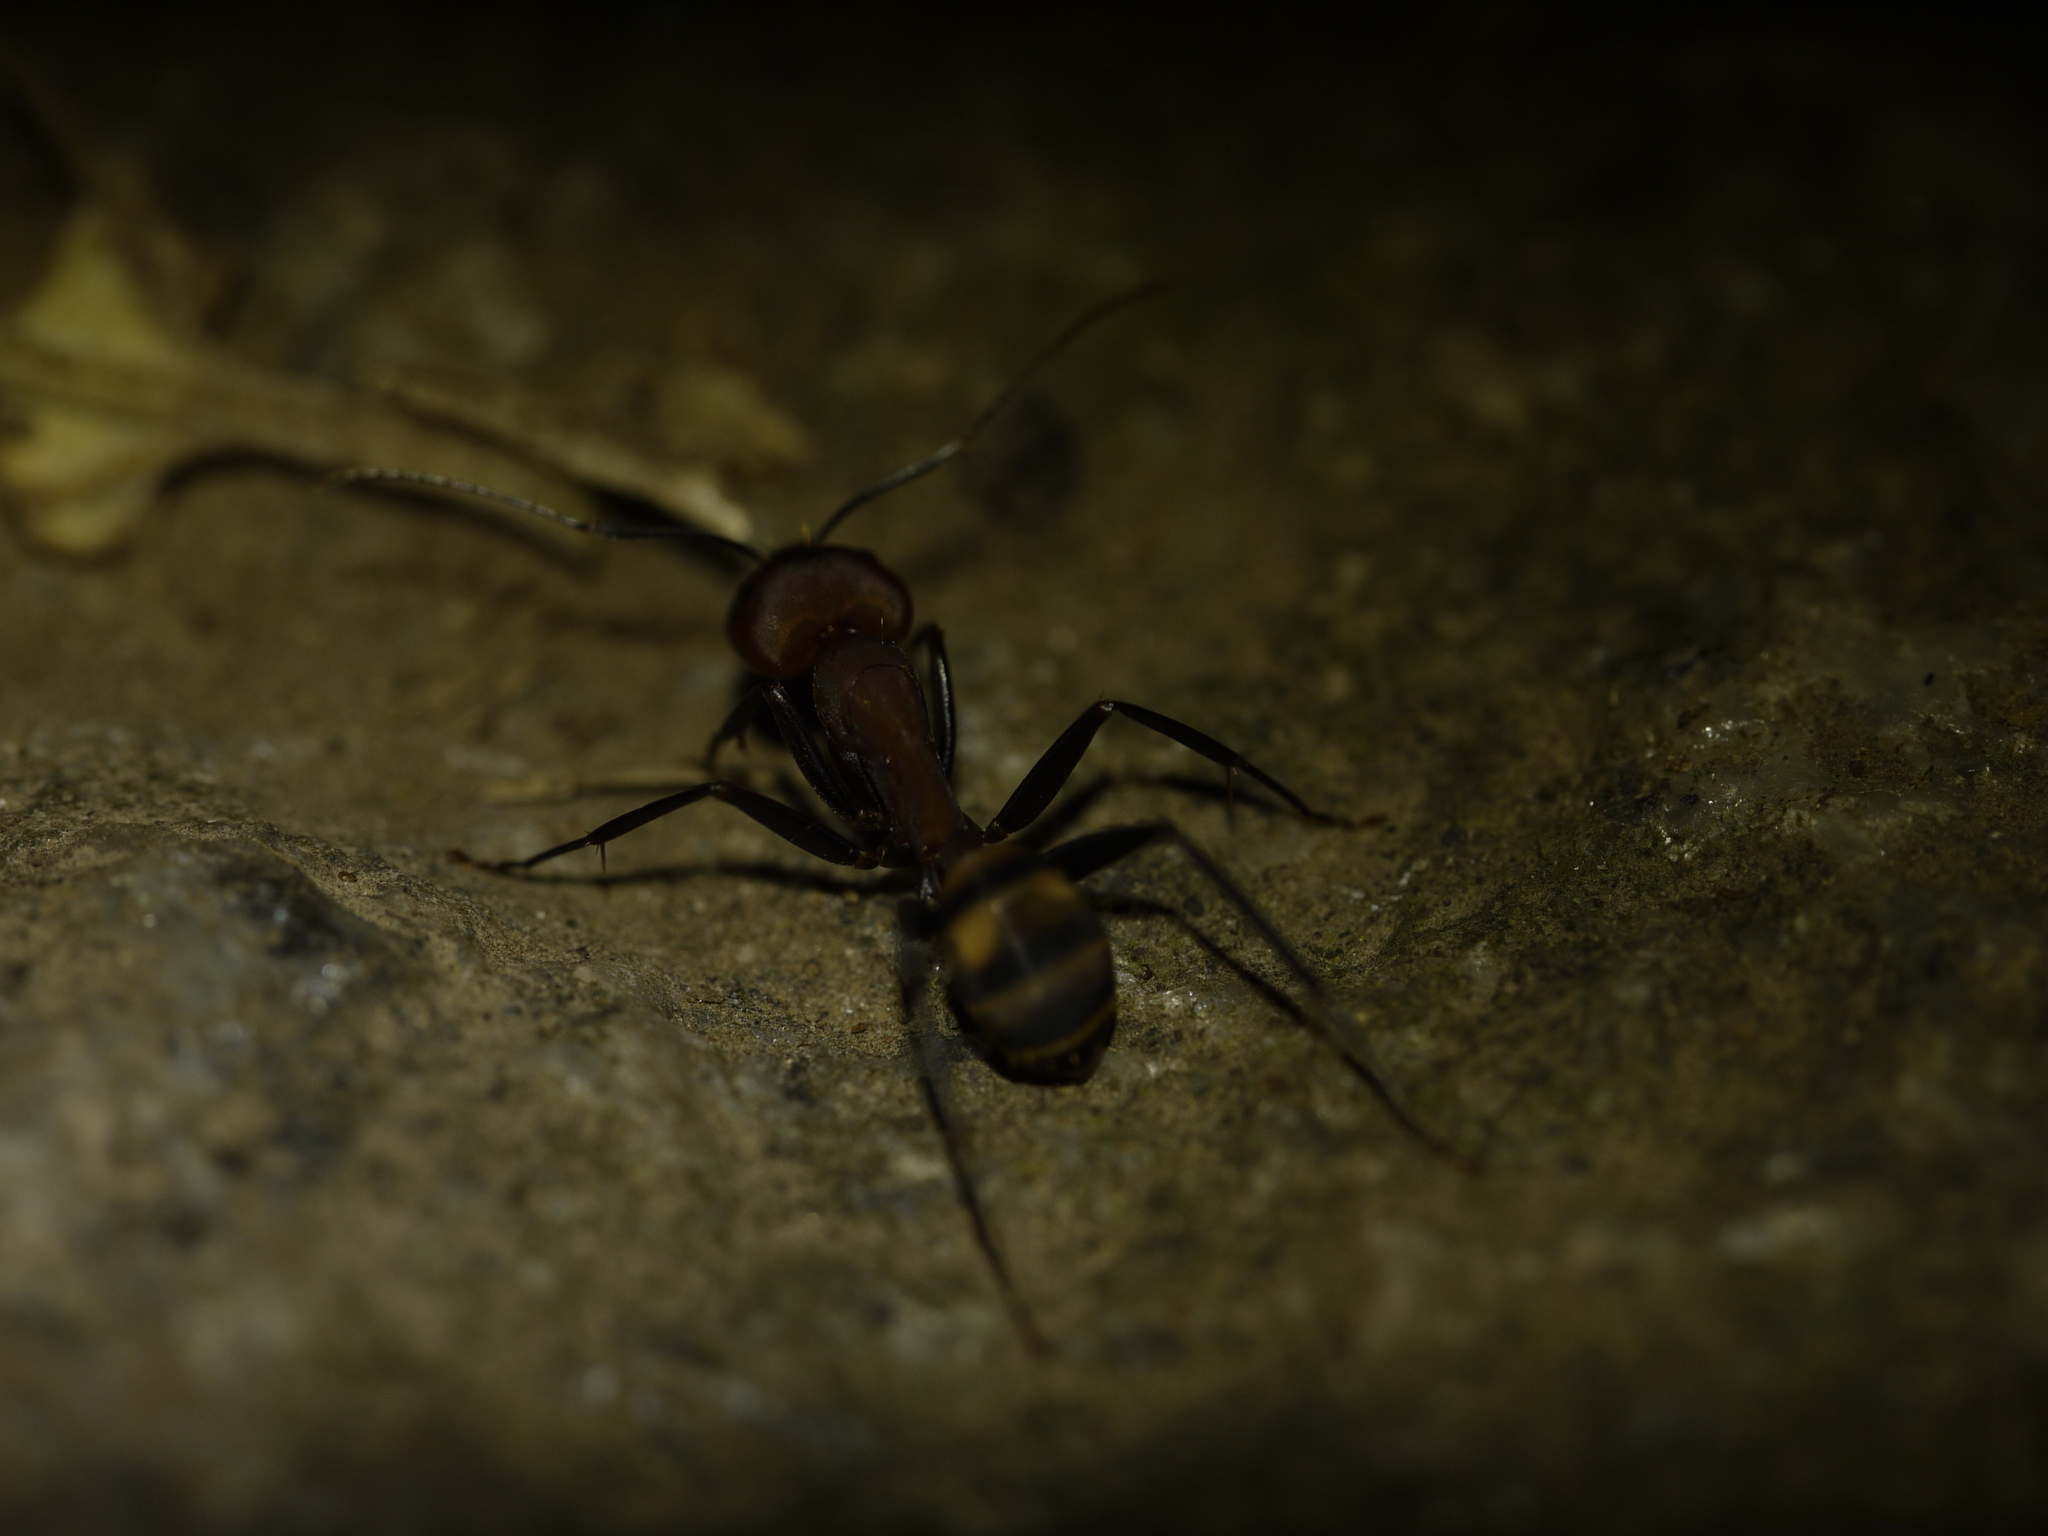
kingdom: Animalia
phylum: Arthropoda
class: Insecta
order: Hymenoptera
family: Formicidae
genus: Camponotus
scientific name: Camponotus habereri
